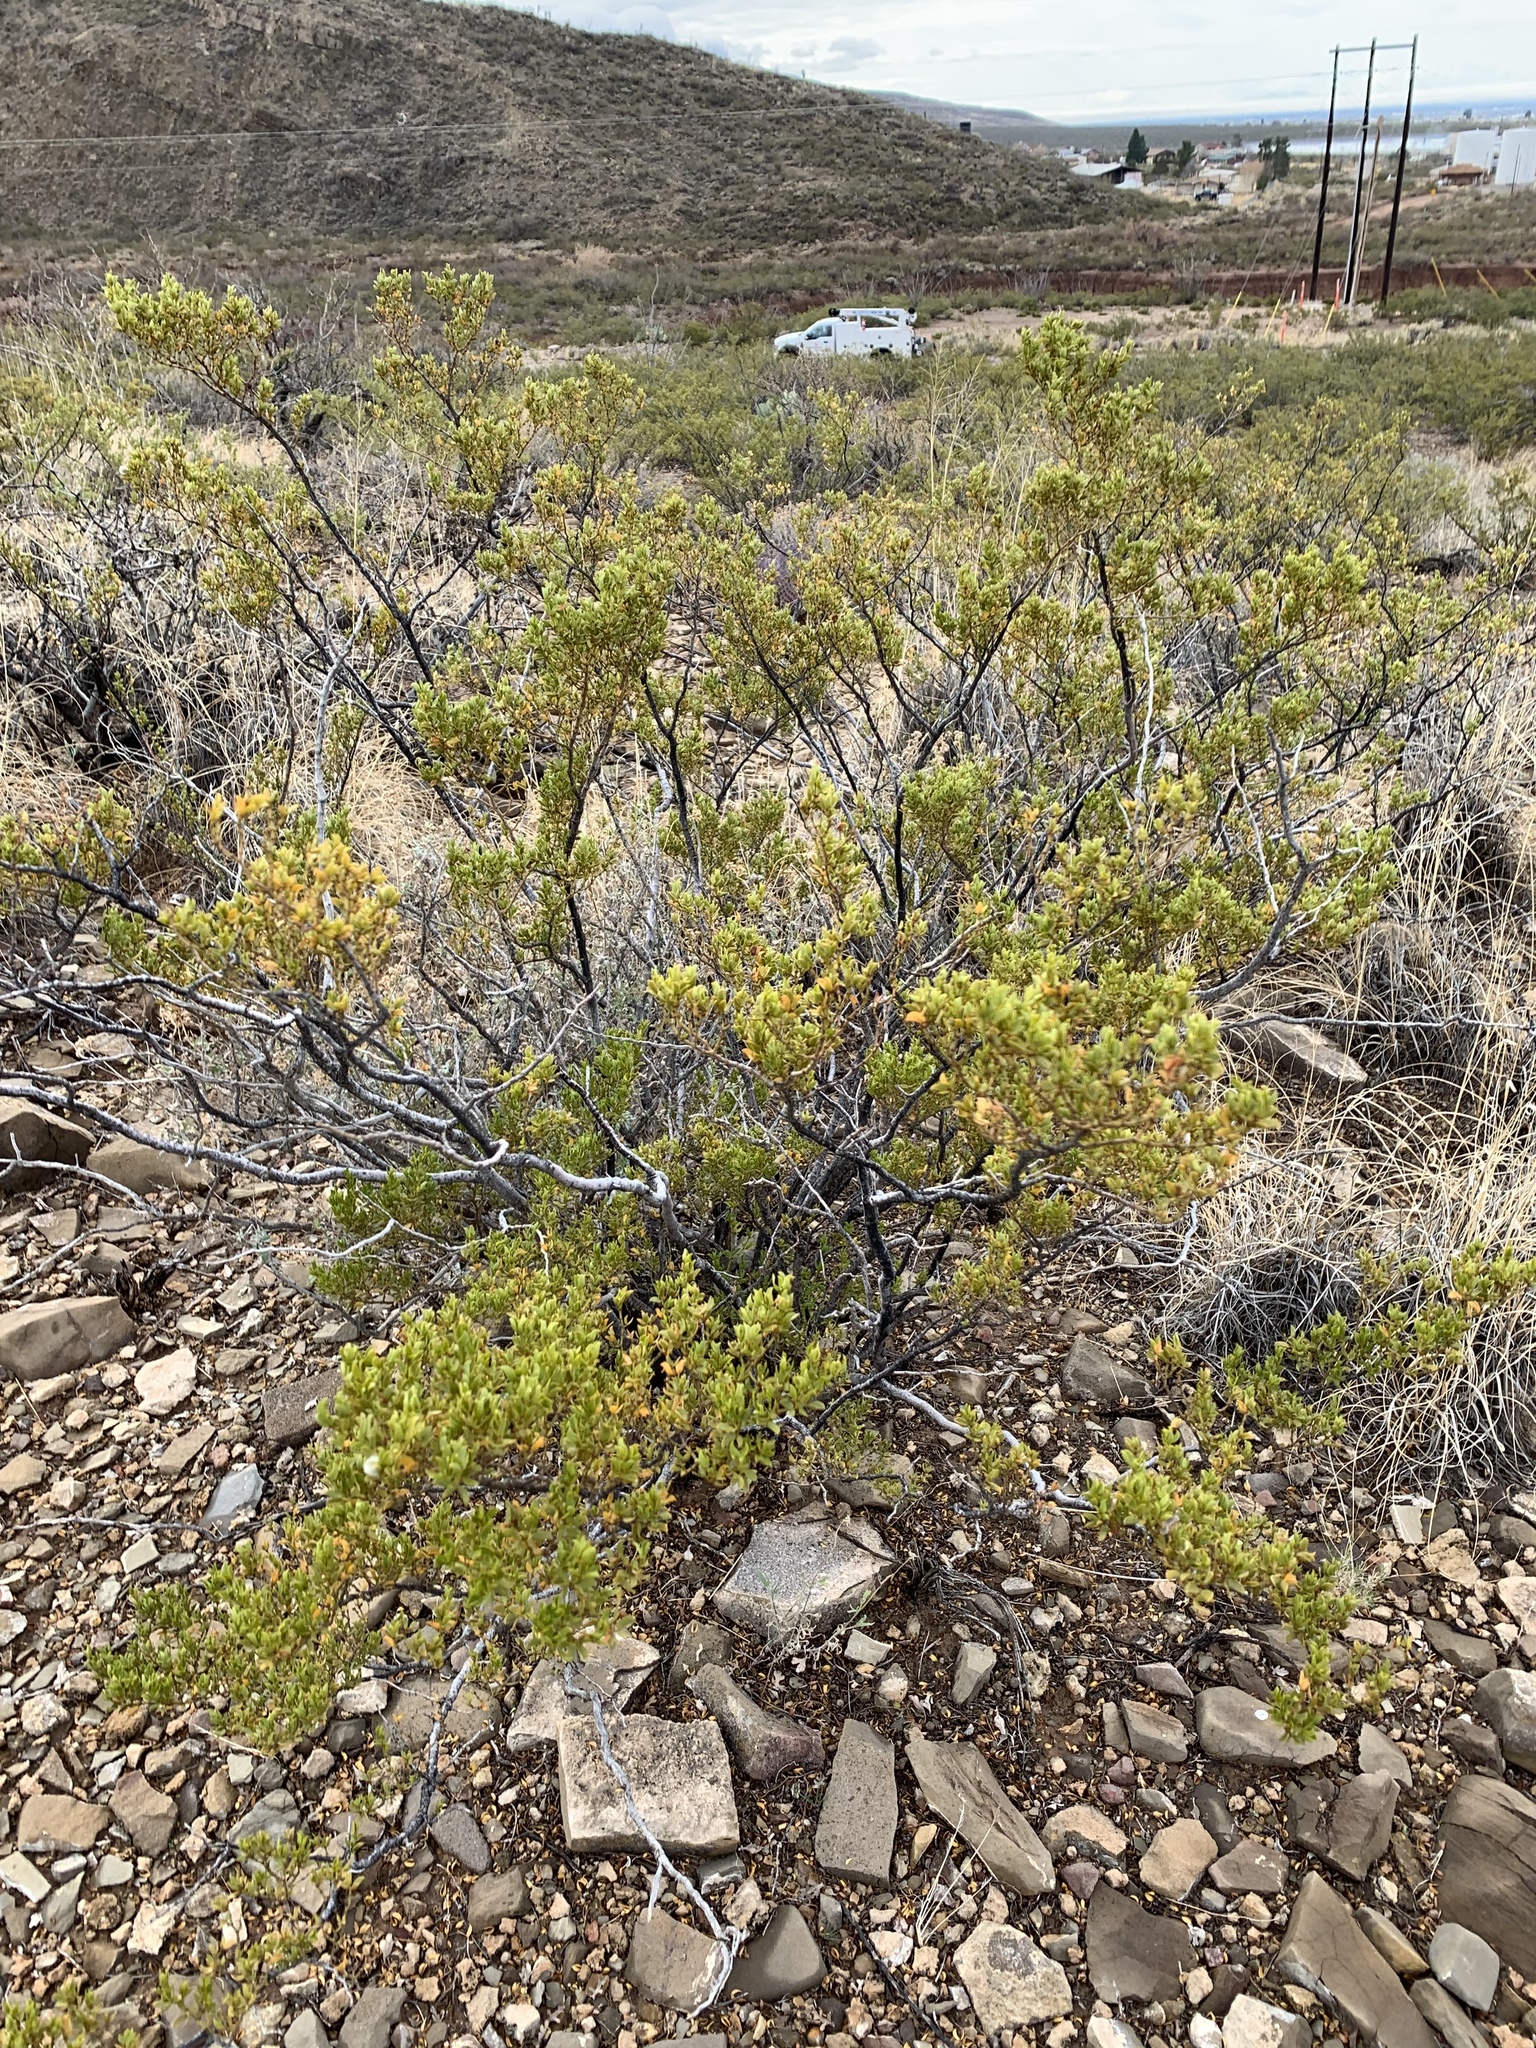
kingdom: Plantae
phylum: Tracheophyta
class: Magnoliopsida
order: Zygophyllales
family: Zygophyllaceae
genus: Larrea
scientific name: Larrea tridentata
